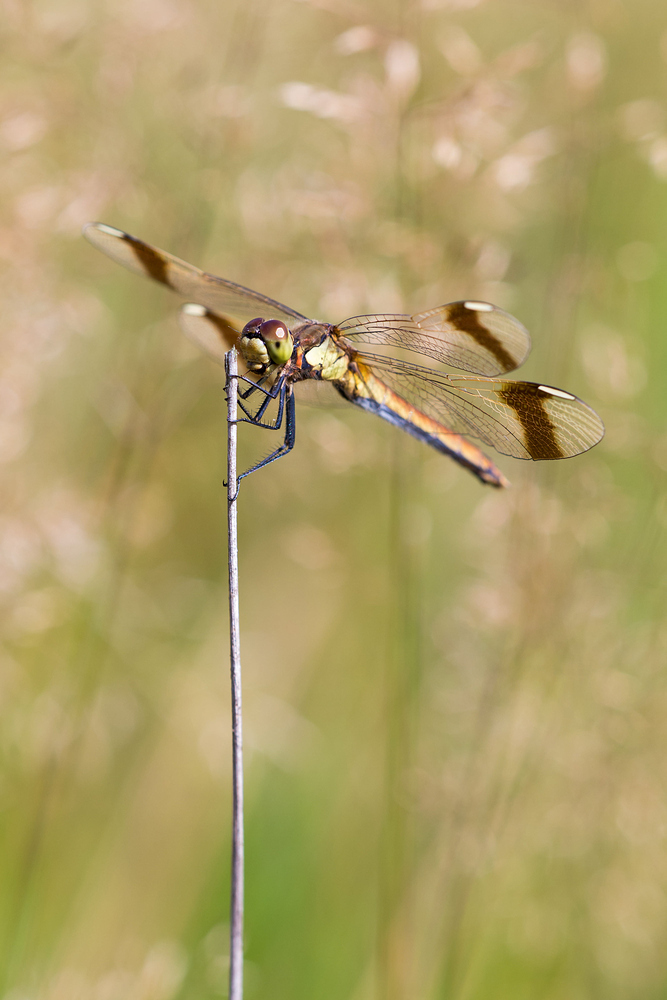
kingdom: Animalia
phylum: Arthropoda
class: Insecta
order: Odonata
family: Libellulidae
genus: Sympetrum
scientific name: Sympetrum pedemontanum
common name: Banded darter
